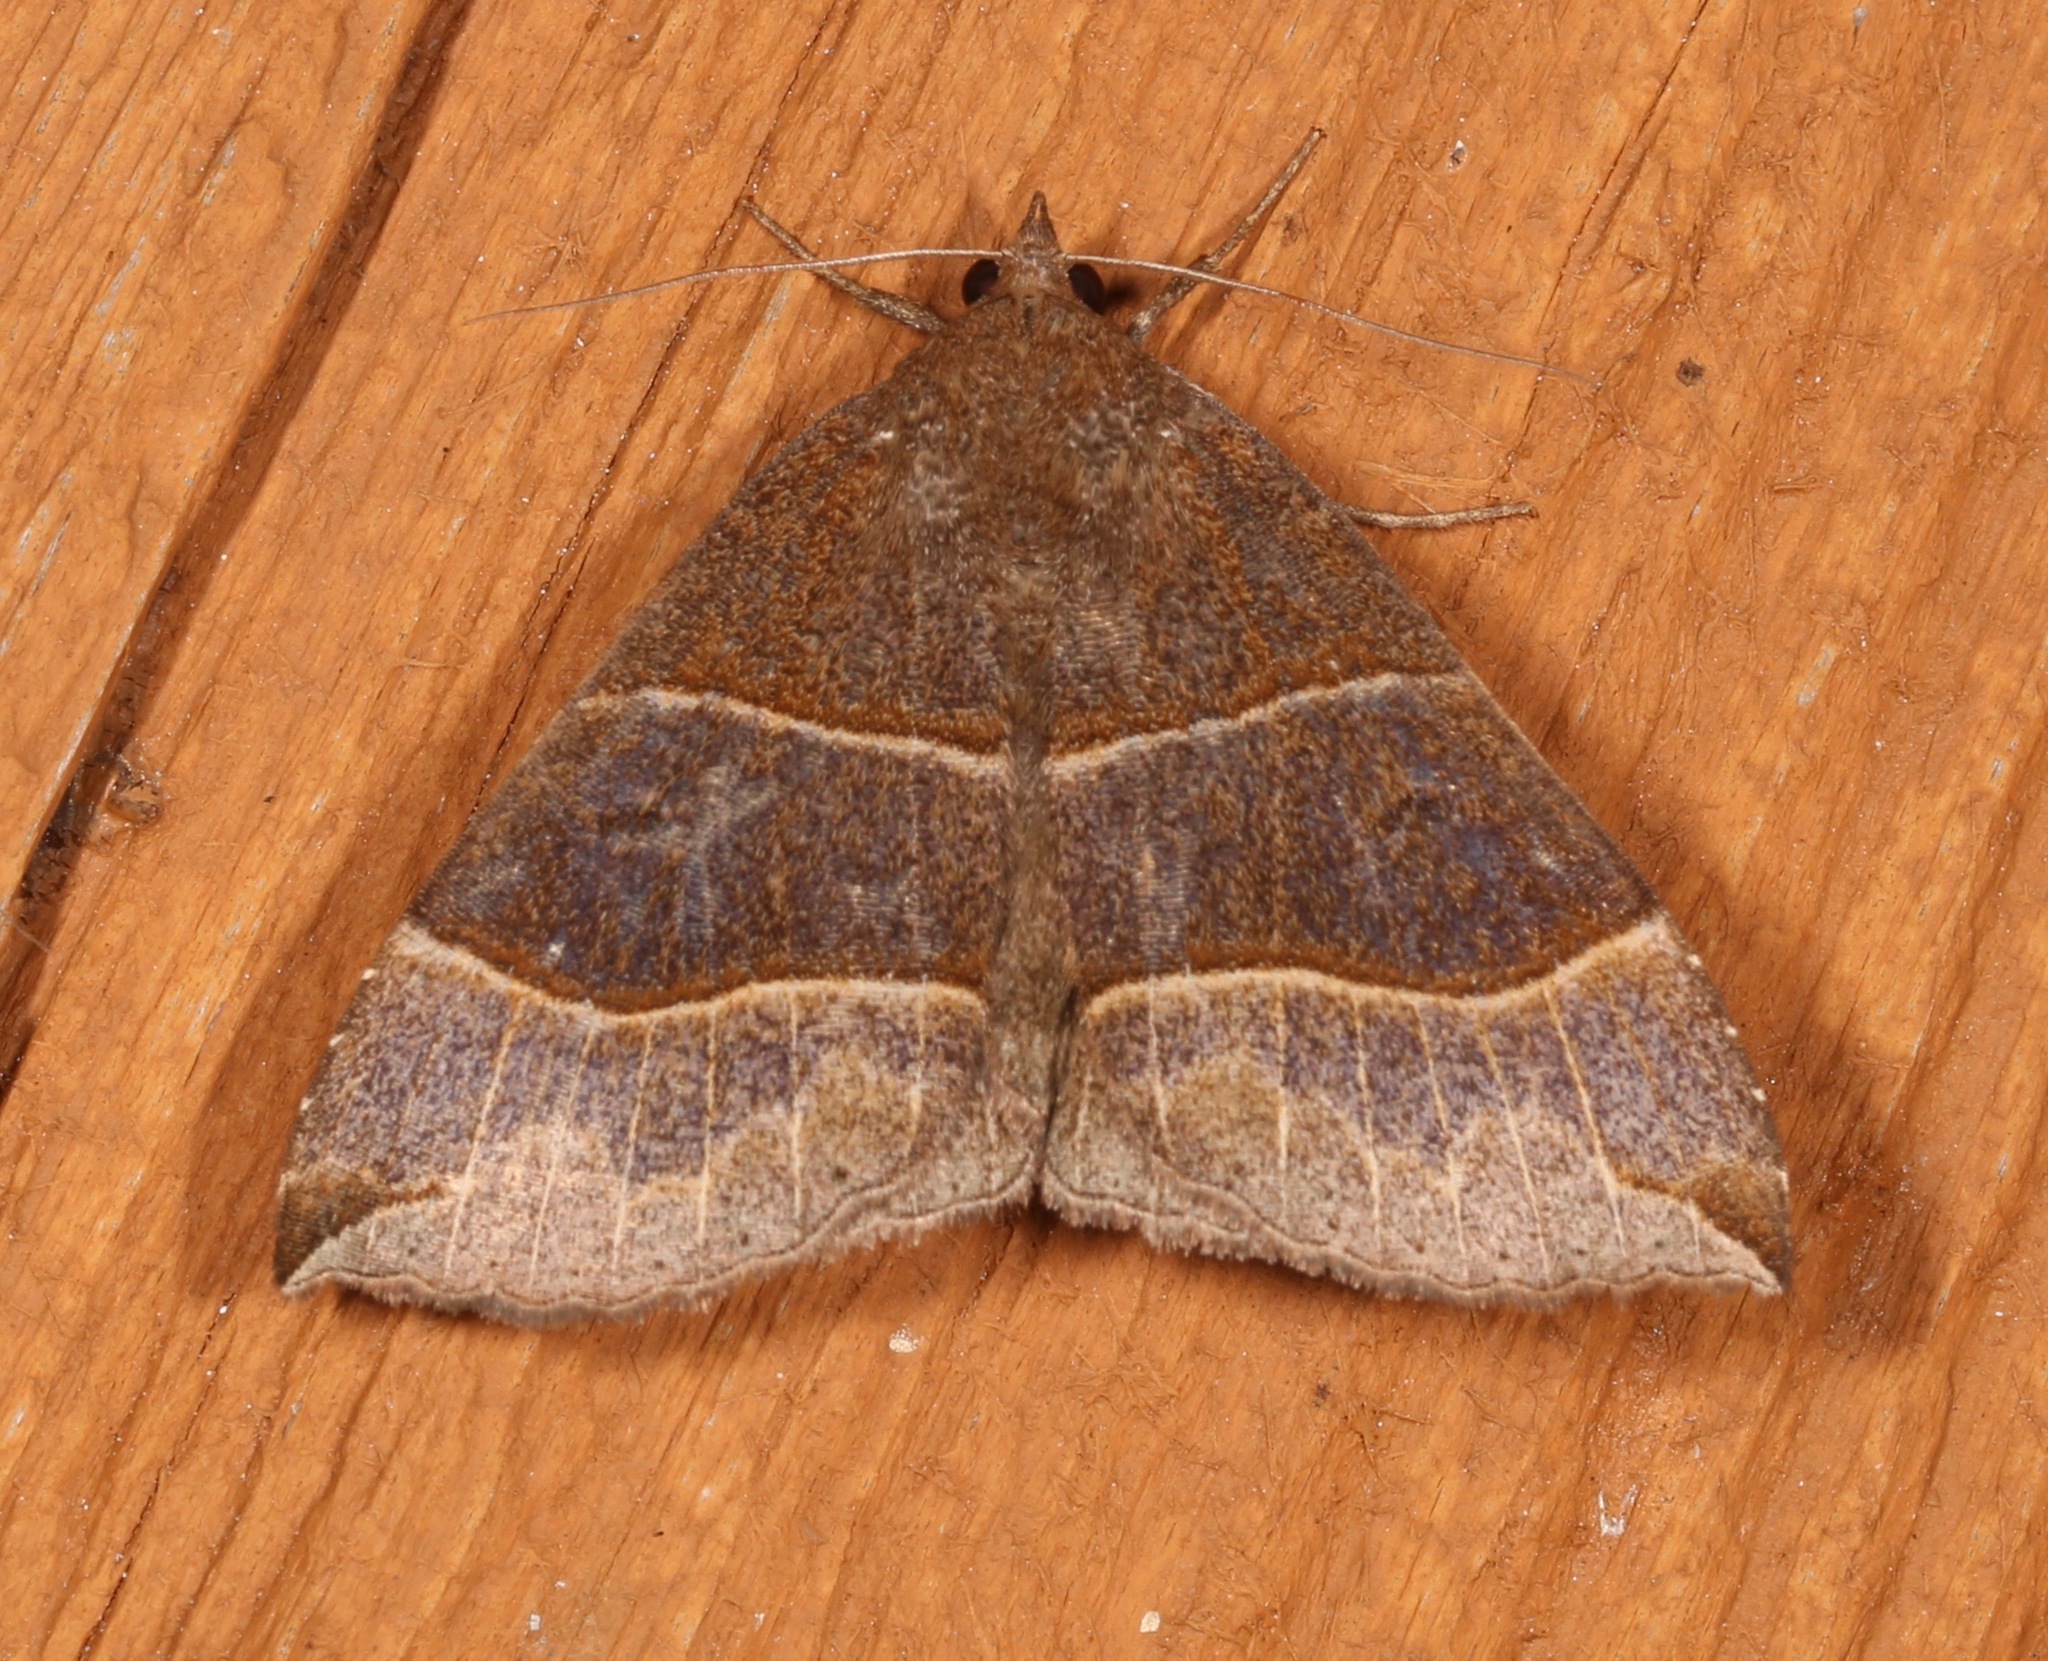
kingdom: Animalia
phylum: Arthropoda
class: Insecta
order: Lepidoptera
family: Erebidae
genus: Parallelia
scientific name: Parallelia bistriaris
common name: Maple looper moth
